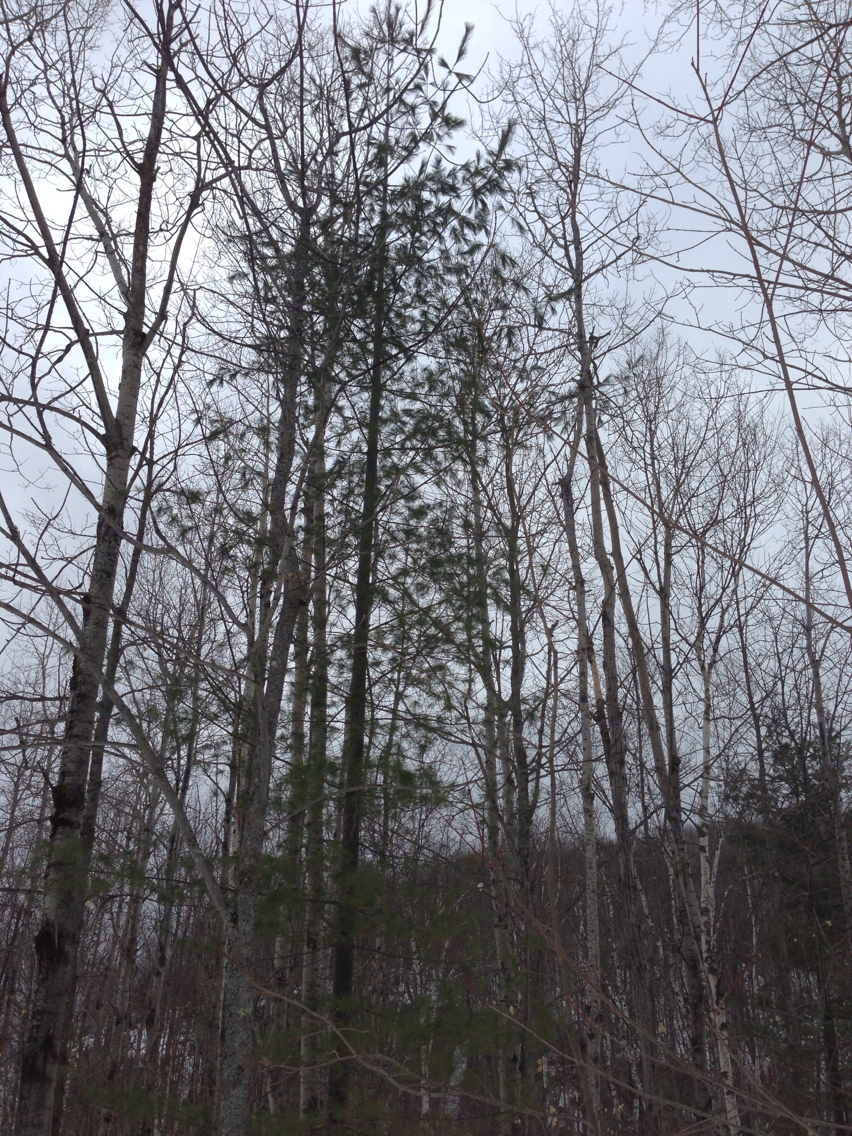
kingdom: Plantae
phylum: Tracheophyta
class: Pinopsida
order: Pinales
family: Pinaceae
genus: Pinus
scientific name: Pinus strobus
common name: Weymouth pine
